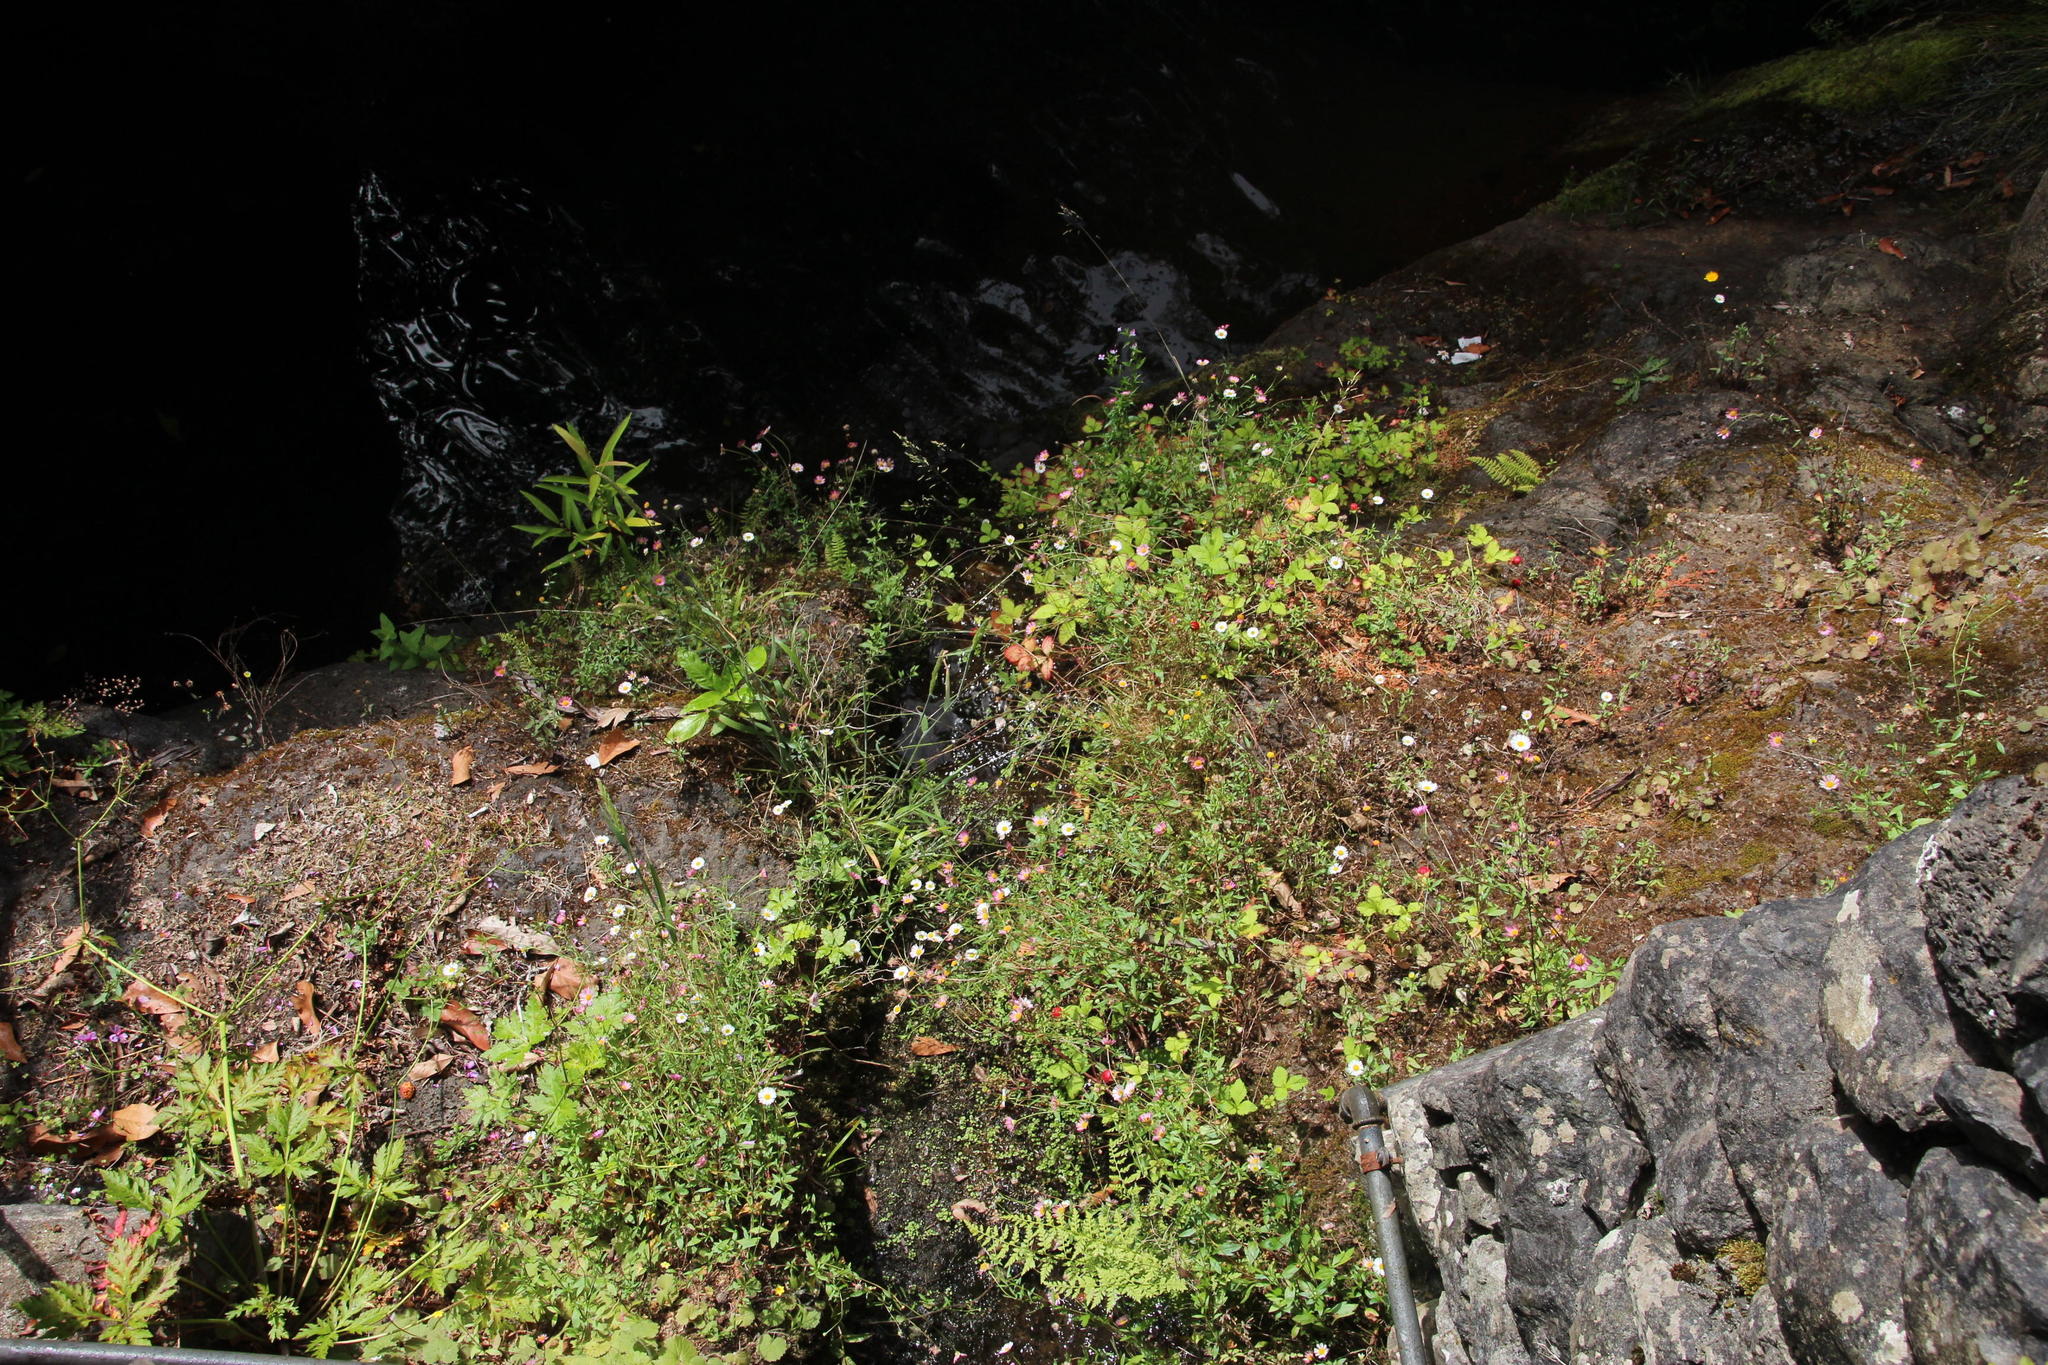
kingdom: Plantae
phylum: Tracheophyta
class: Magnoliopsida
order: Asterales
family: Asteraceae
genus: Erigeron
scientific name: Erigeron karvinskianus
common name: Mexican fleabane
